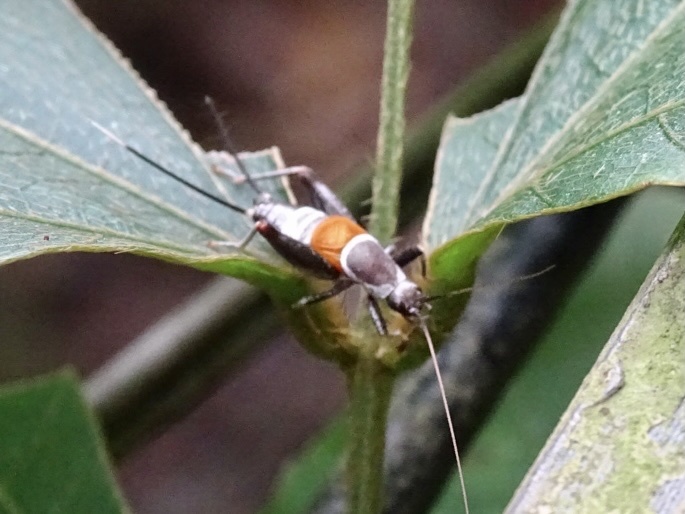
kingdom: Animalia
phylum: Arthropoda
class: Insecta
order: Orthoptera
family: Mogoplistidae
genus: Ornebius
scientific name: Ornebius fuscicerci
